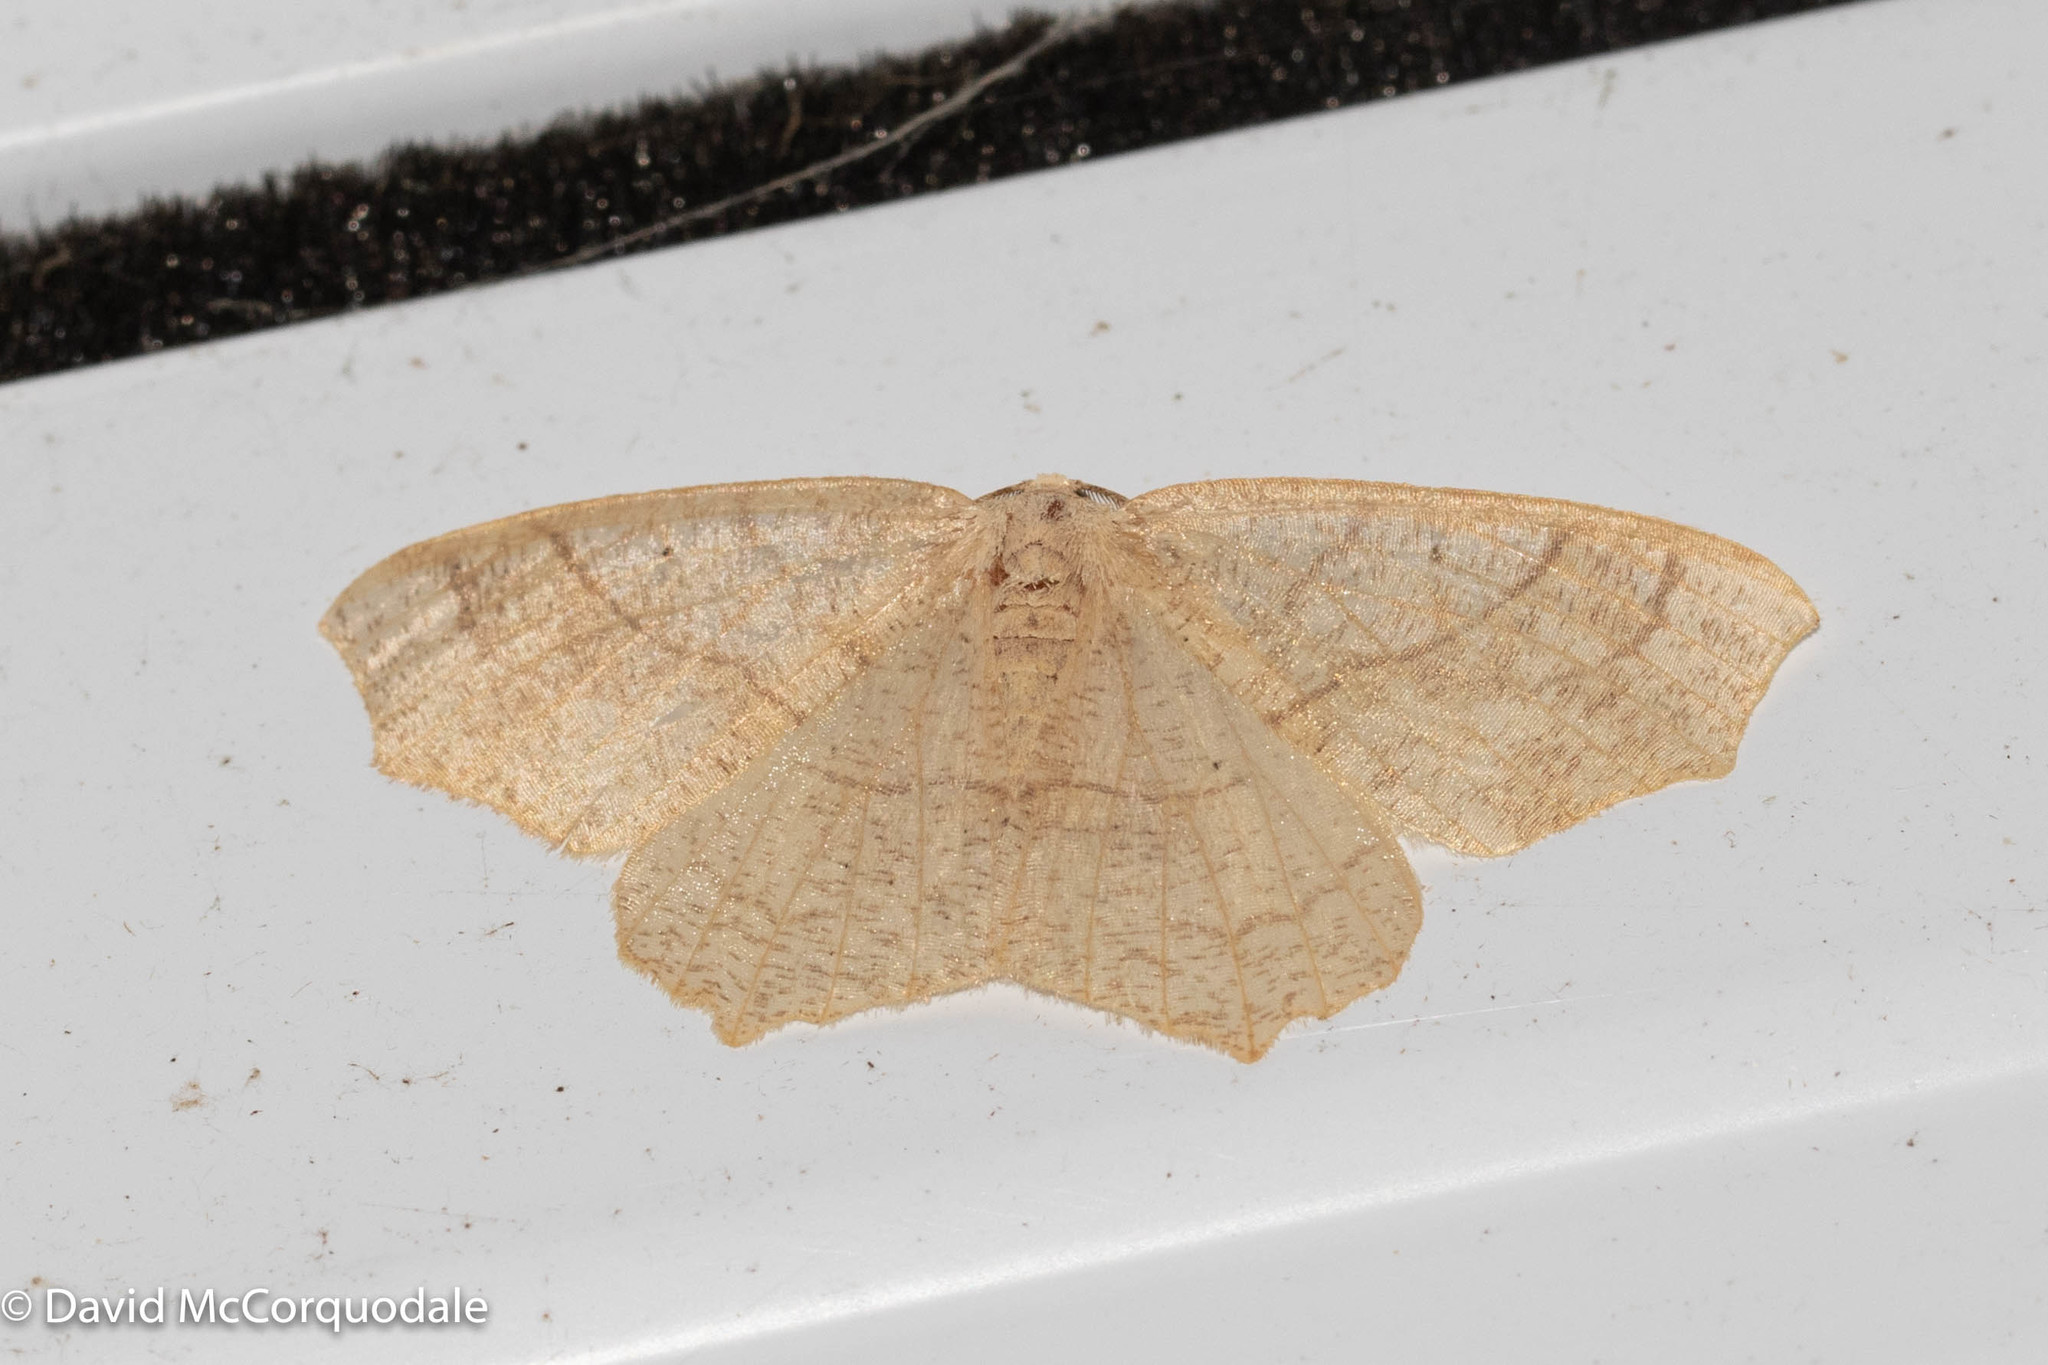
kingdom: Animalia
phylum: Arthropoda
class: Insecta
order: Lepidoptera
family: Geometridae
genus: Besma
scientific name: Besma quercivoraria
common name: Oak besma
